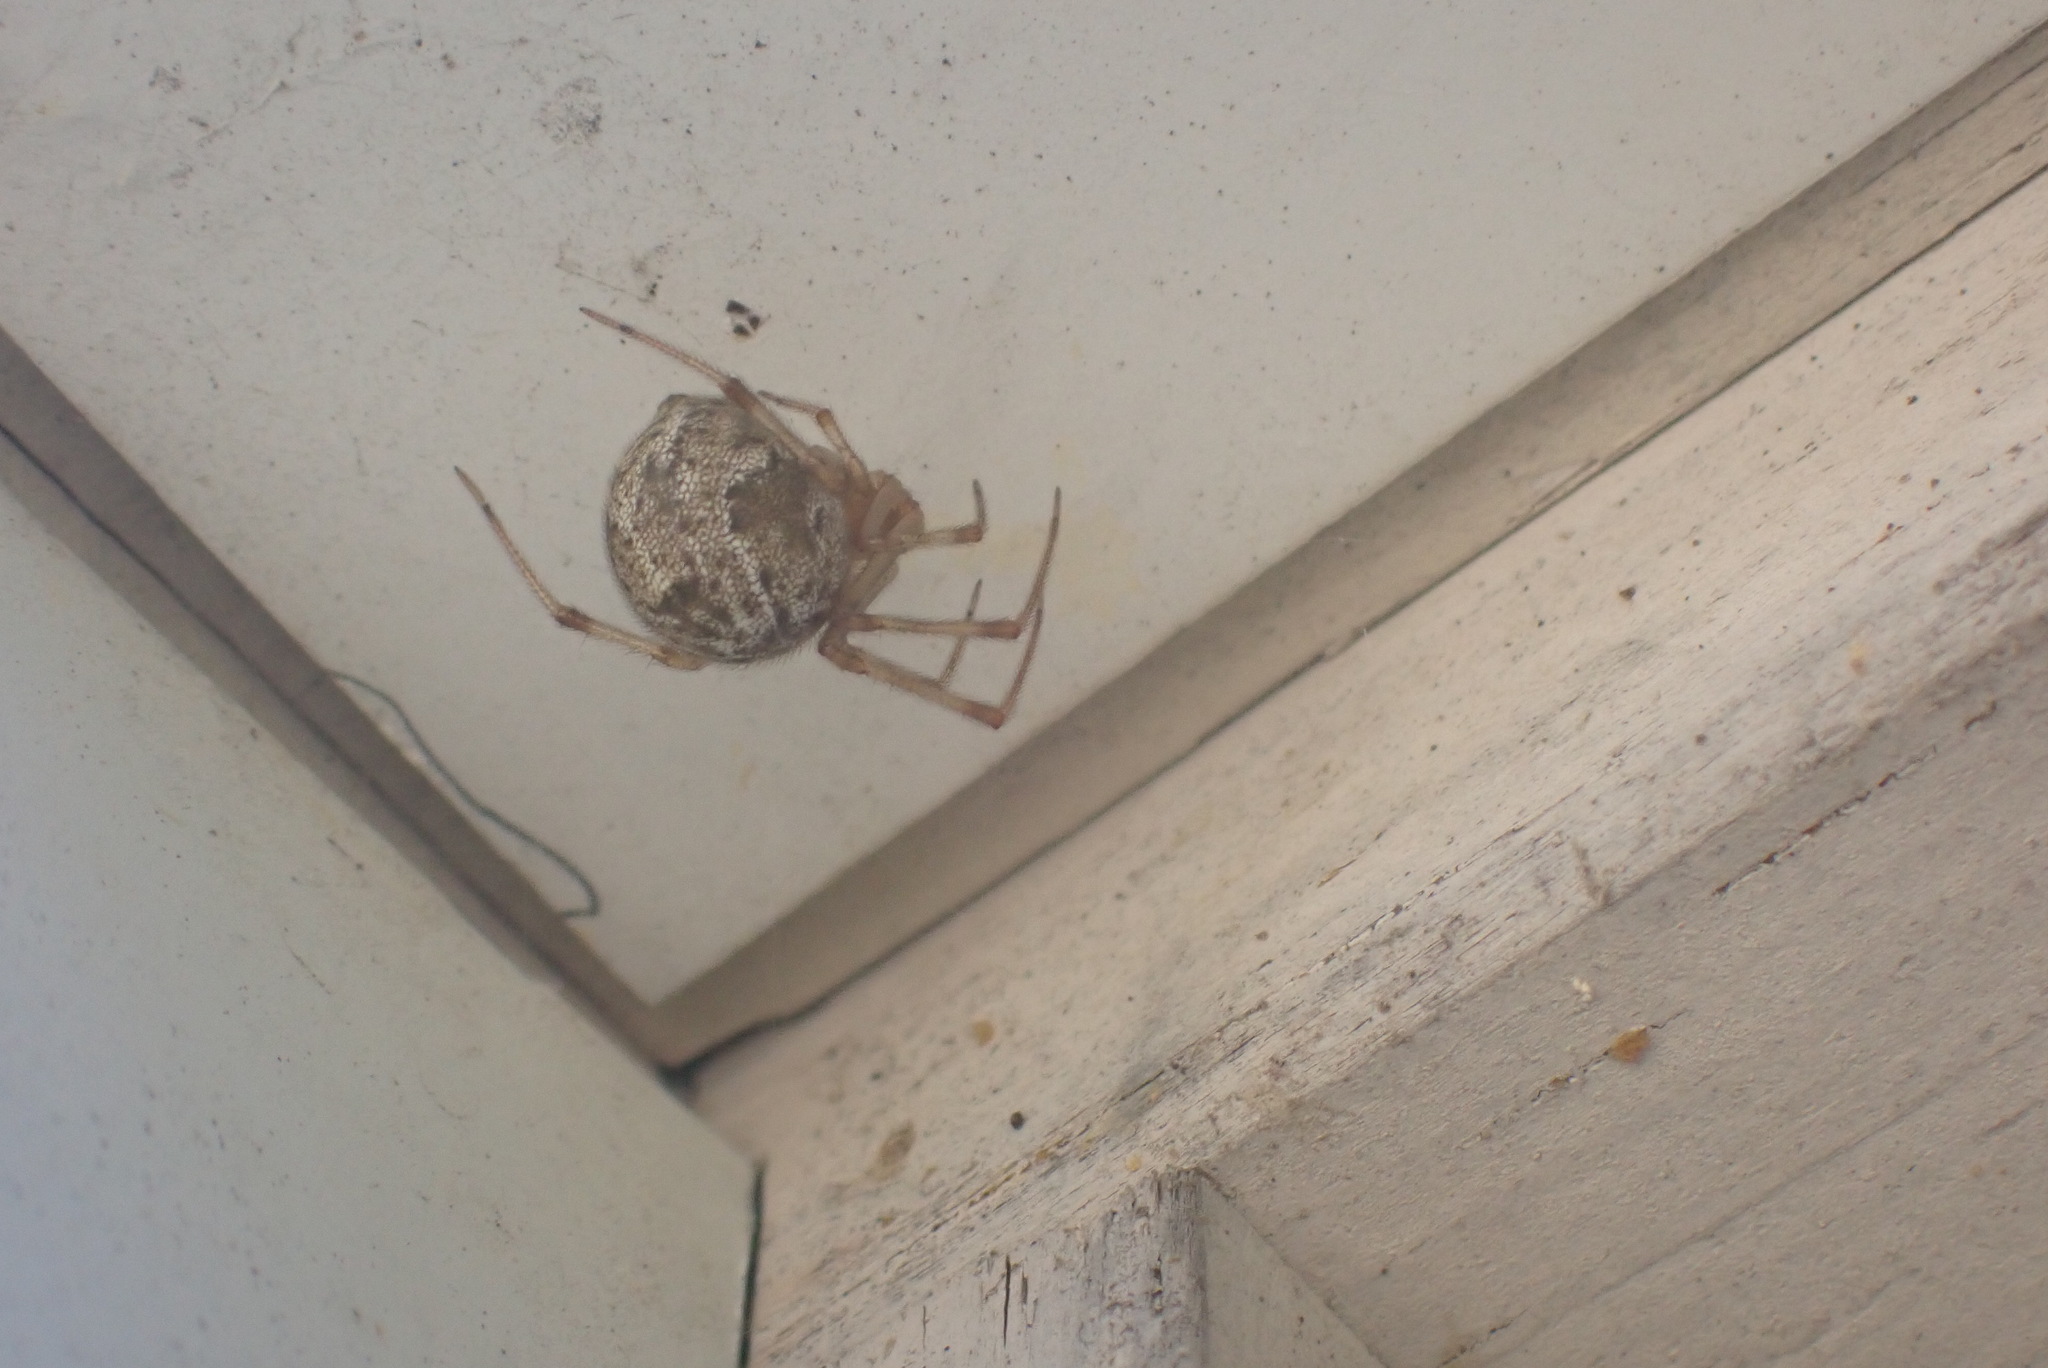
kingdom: Animalia
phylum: Arthropoda
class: Arachnida
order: Araneae
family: Theridiidae
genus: Parasteatoda
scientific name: Parasteatoda tepidariorum
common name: Common house spider
